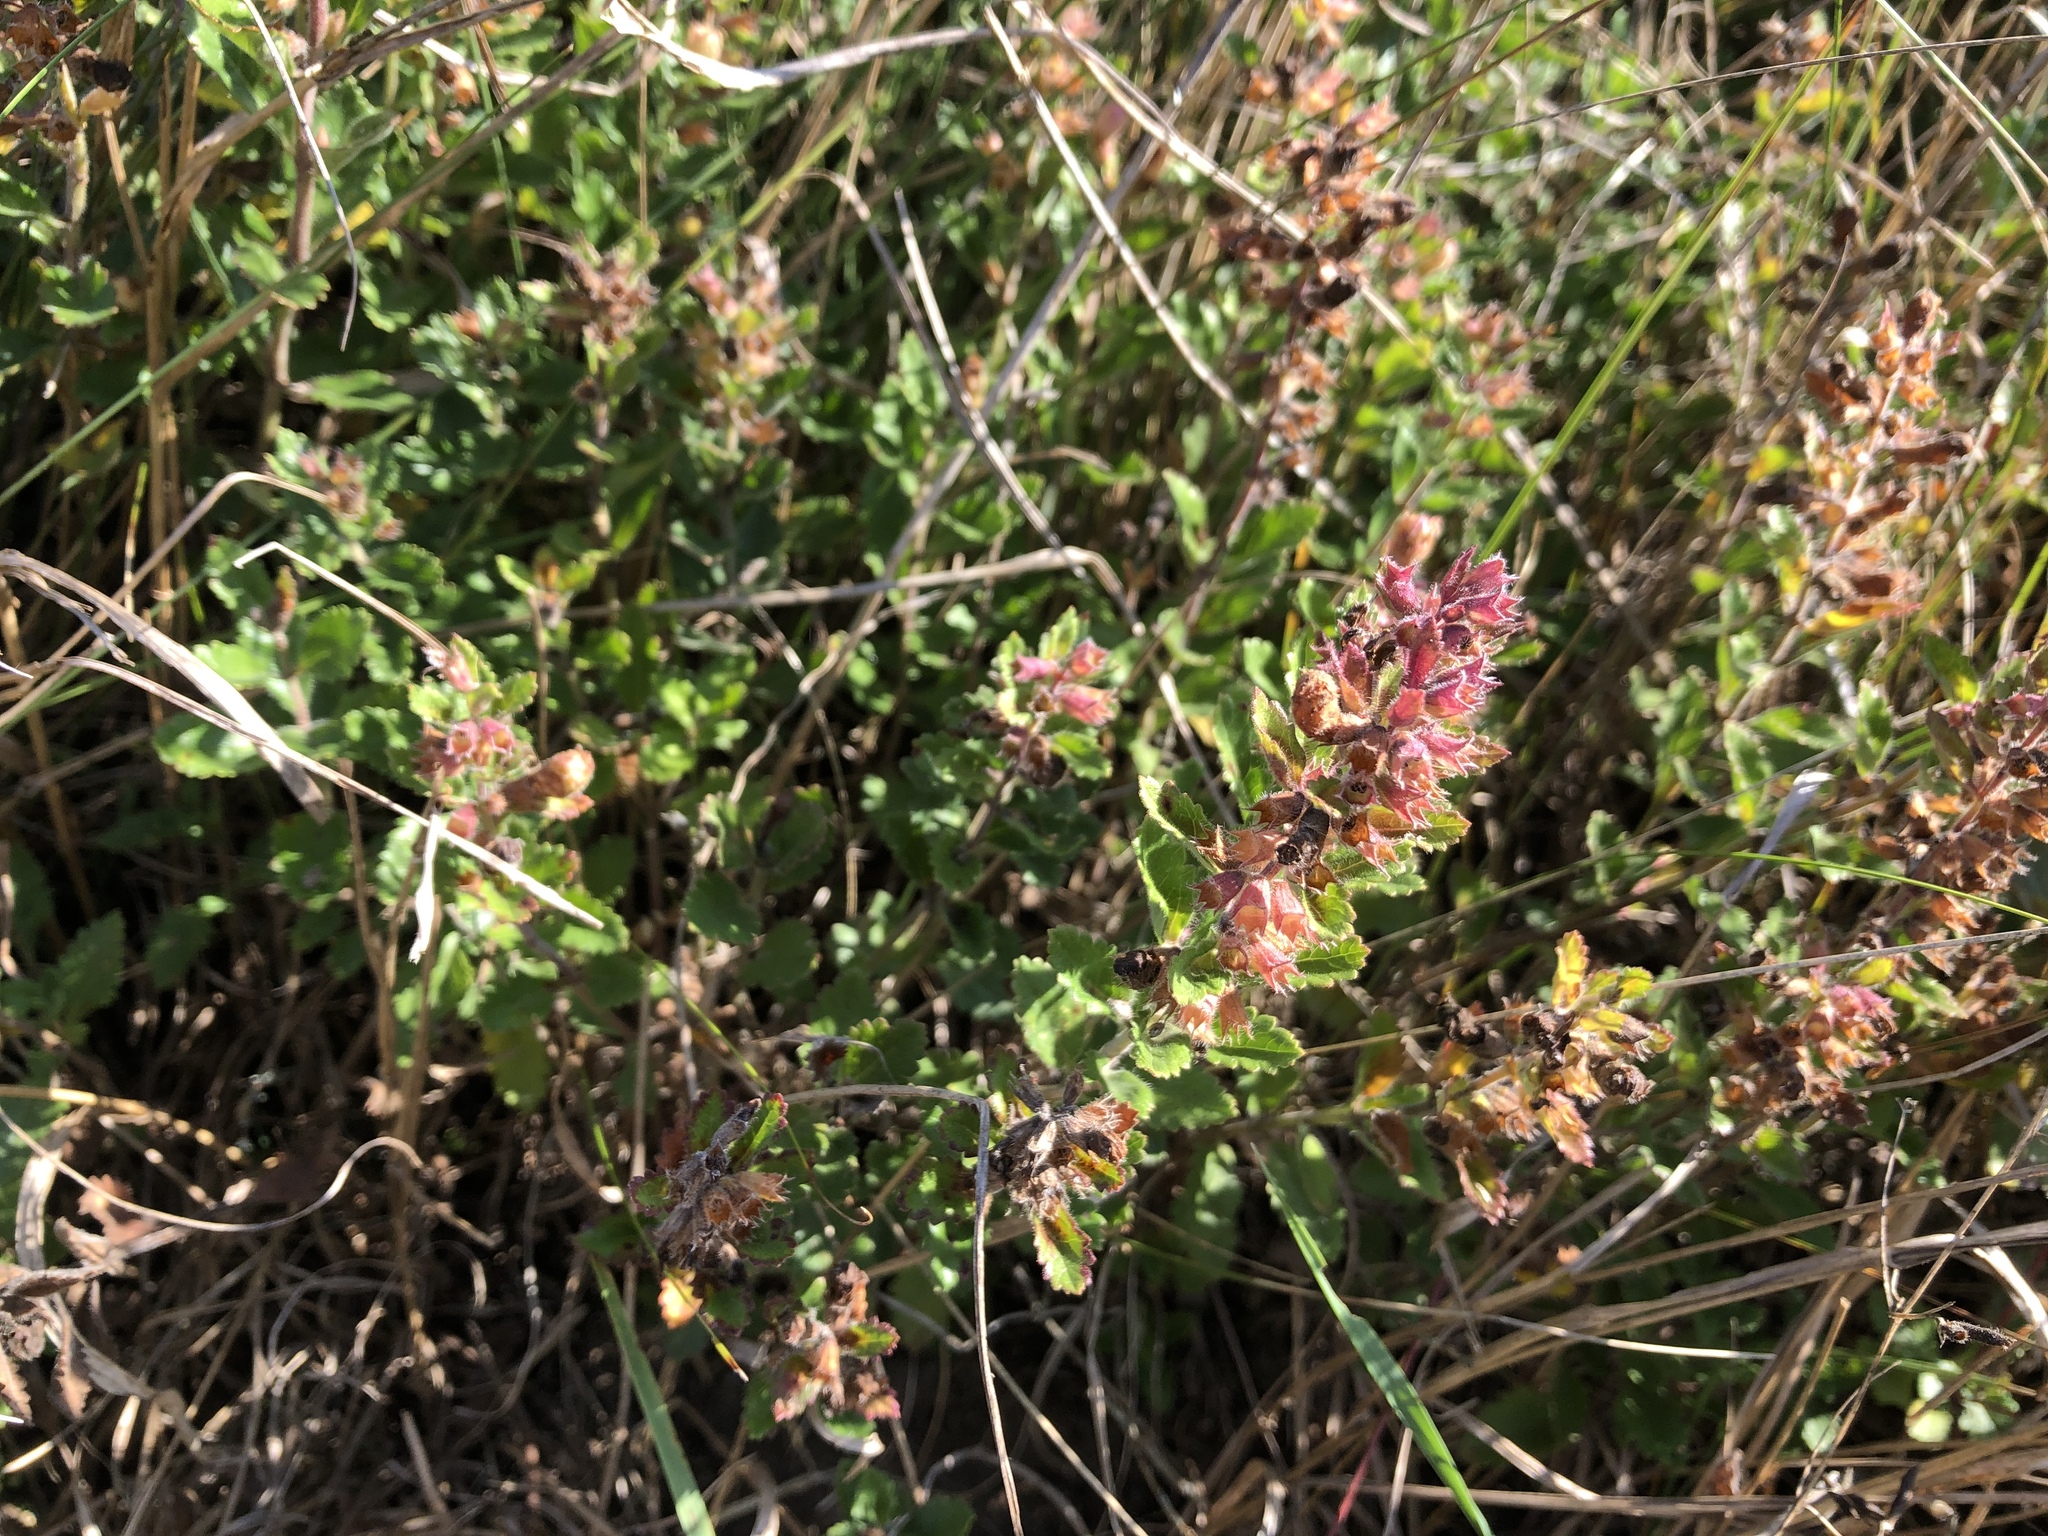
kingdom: Plantae
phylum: Tracheophyta
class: Magnoliopsida
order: Lamiales
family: Lamiaceae
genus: Teucrium
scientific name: Teucrium chamaedrys
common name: Wall germander
